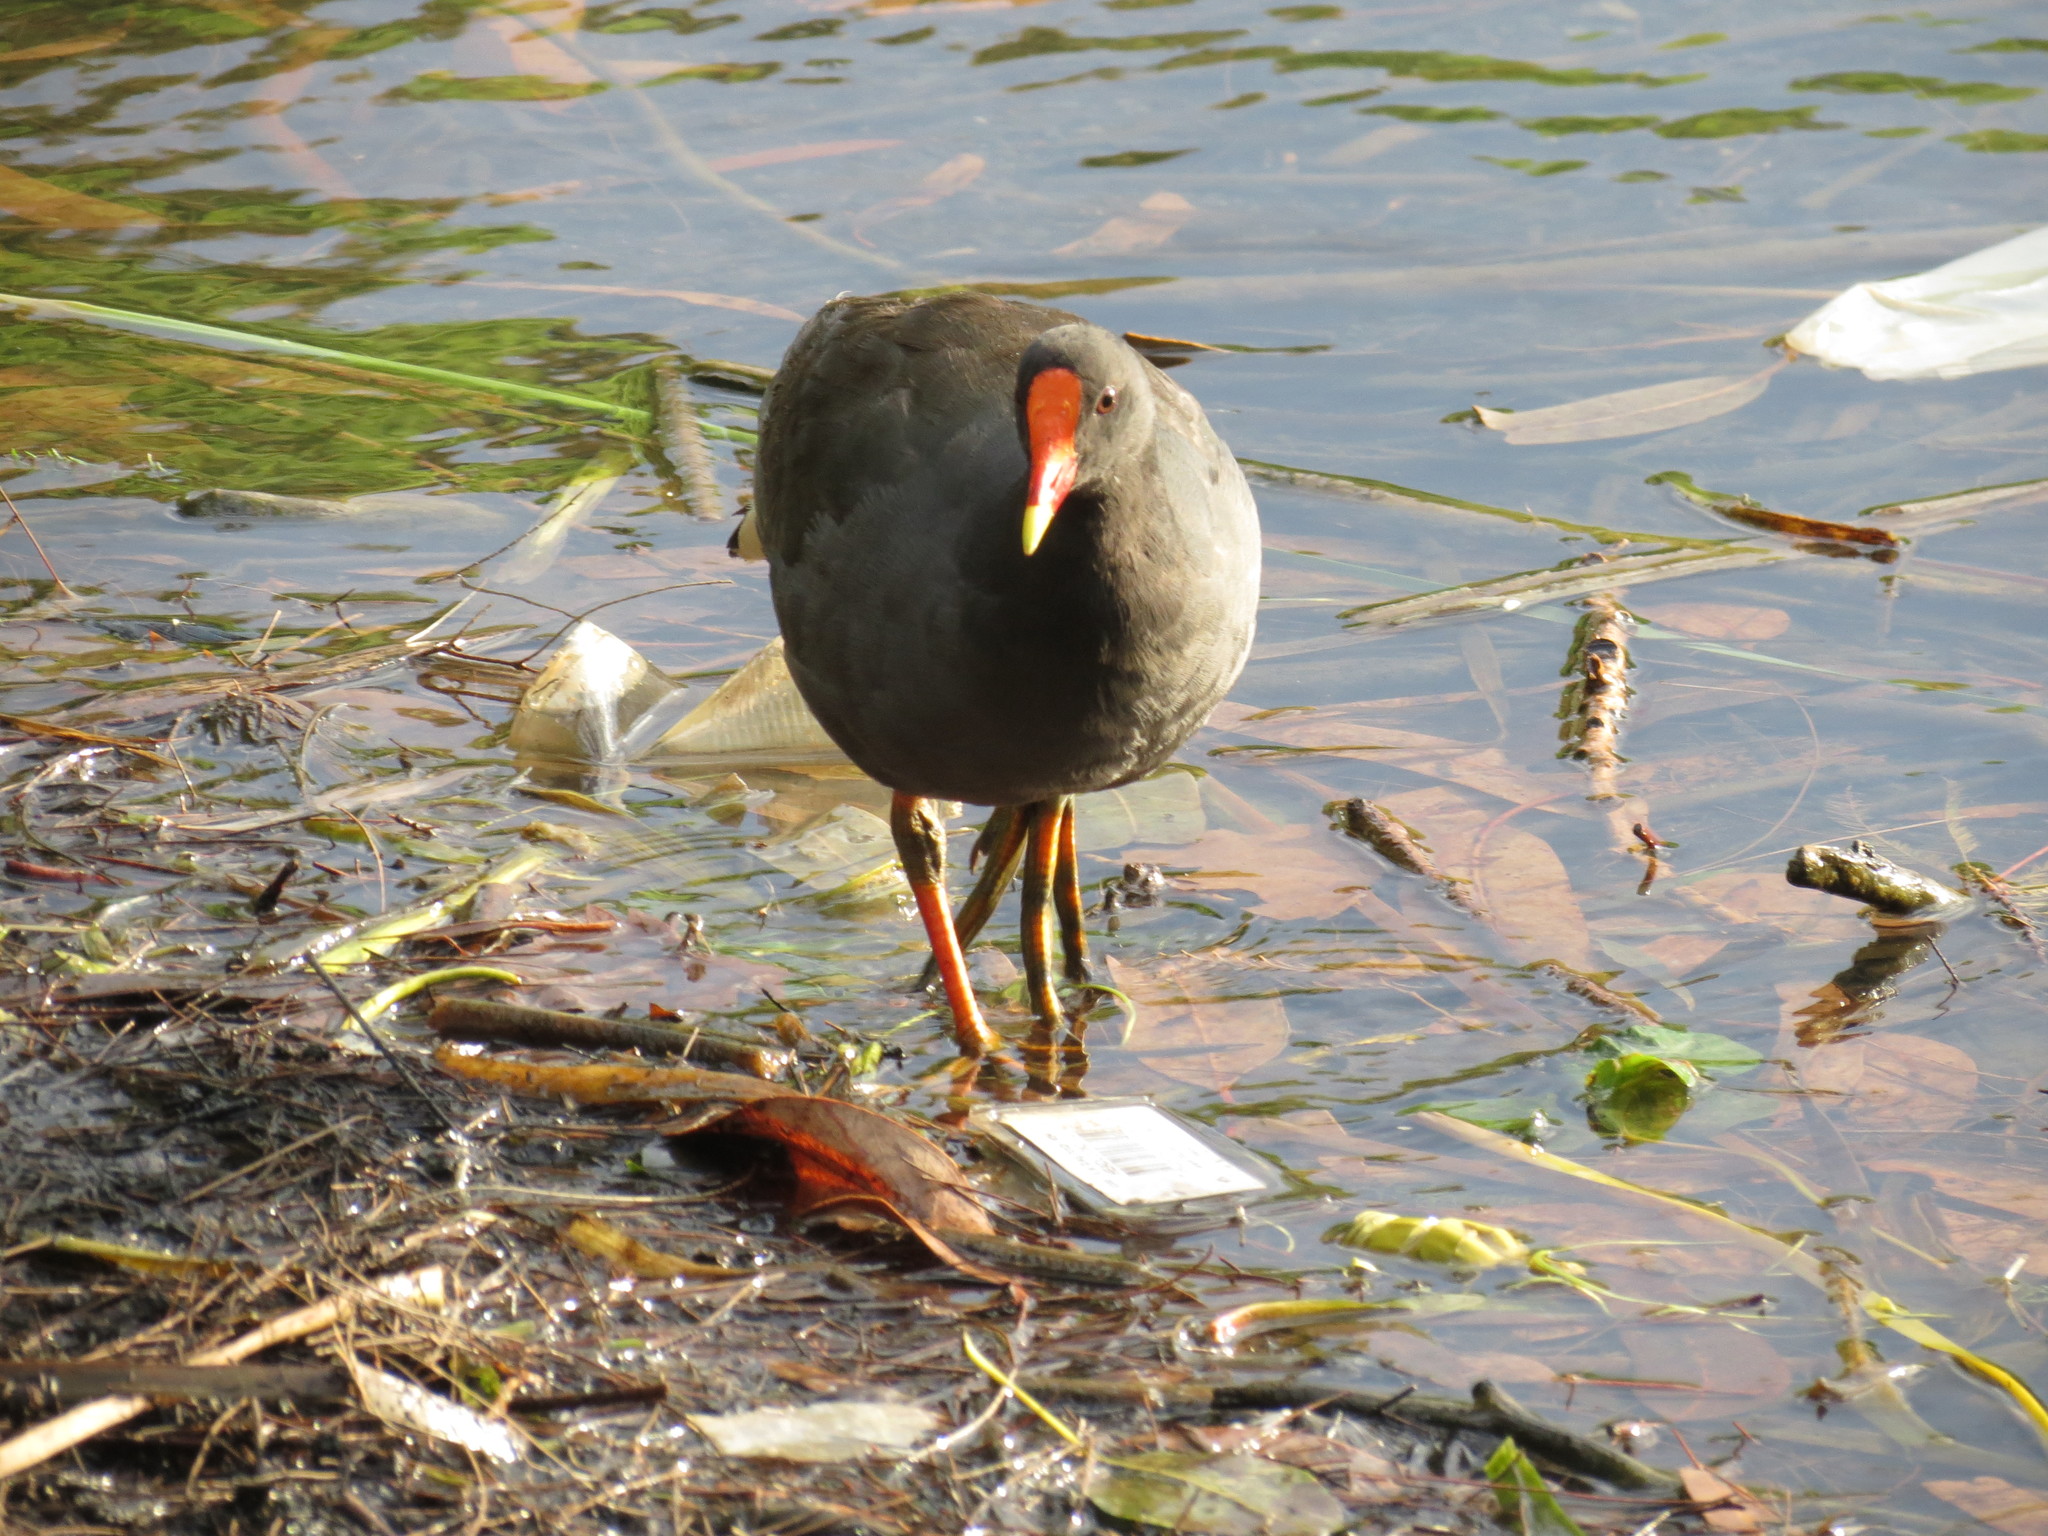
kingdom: Animalia
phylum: Chordata
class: Aves
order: Gruiformes
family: Rallidae
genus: Gallinula
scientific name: Gallinula tenebrosa
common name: Dusky moorhen
